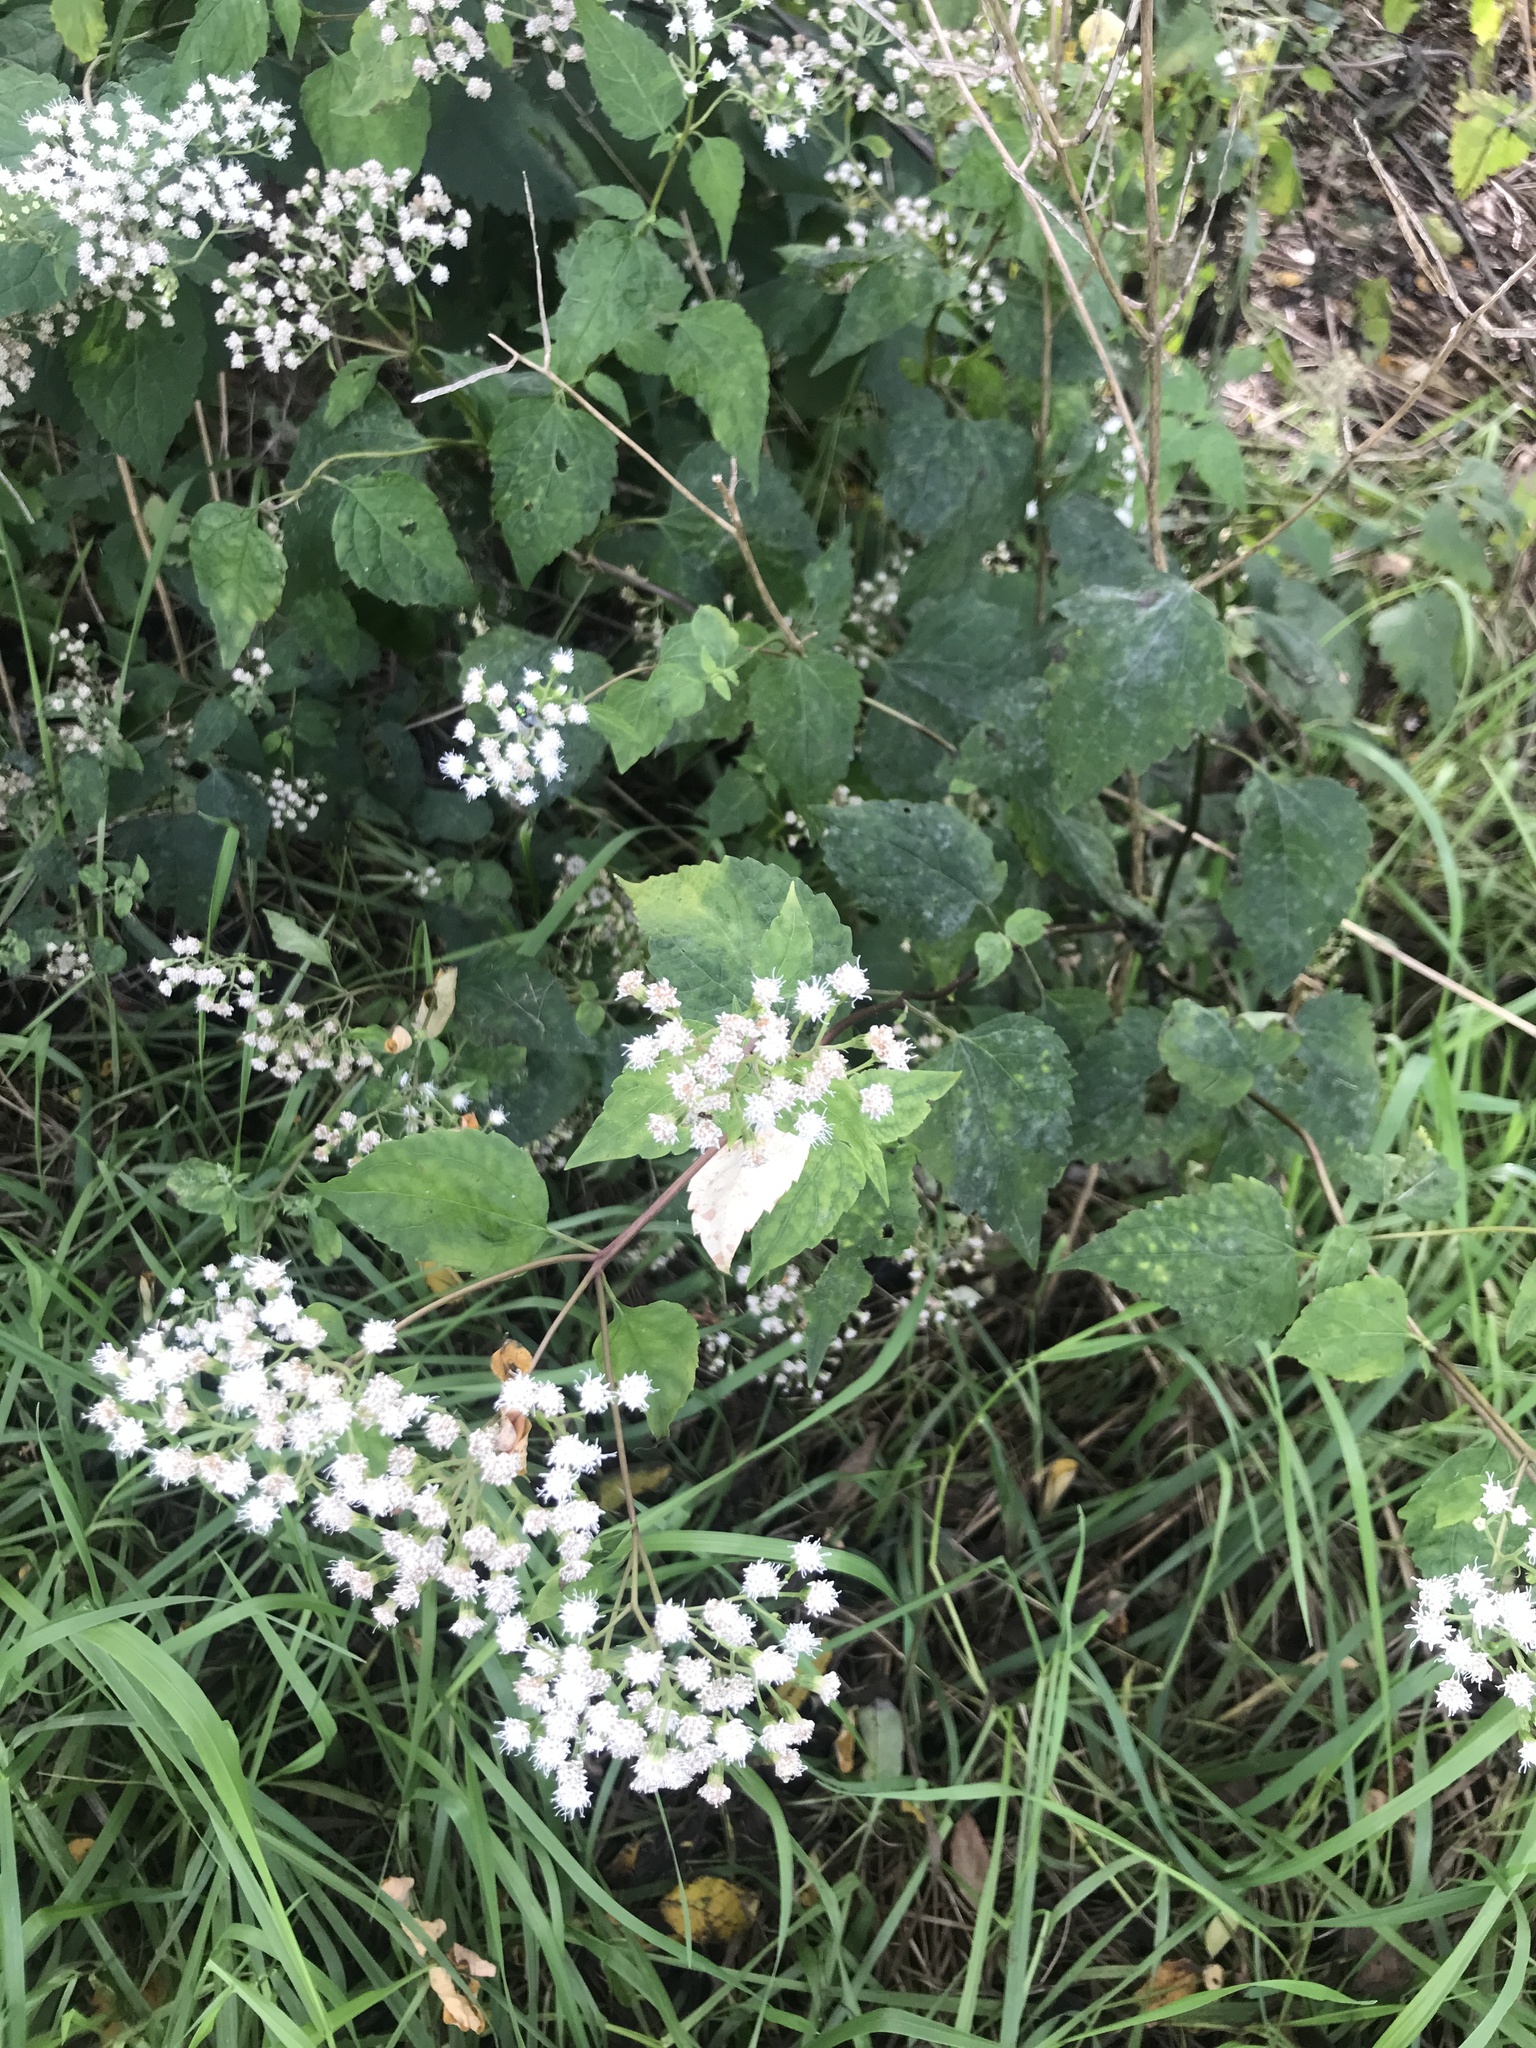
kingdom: Plantae
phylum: Tracheophyta
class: Magnoliopsida
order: Asterales
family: Asteraceae
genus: Ageratina
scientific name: Ageratina altissima
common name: White snakeroot
